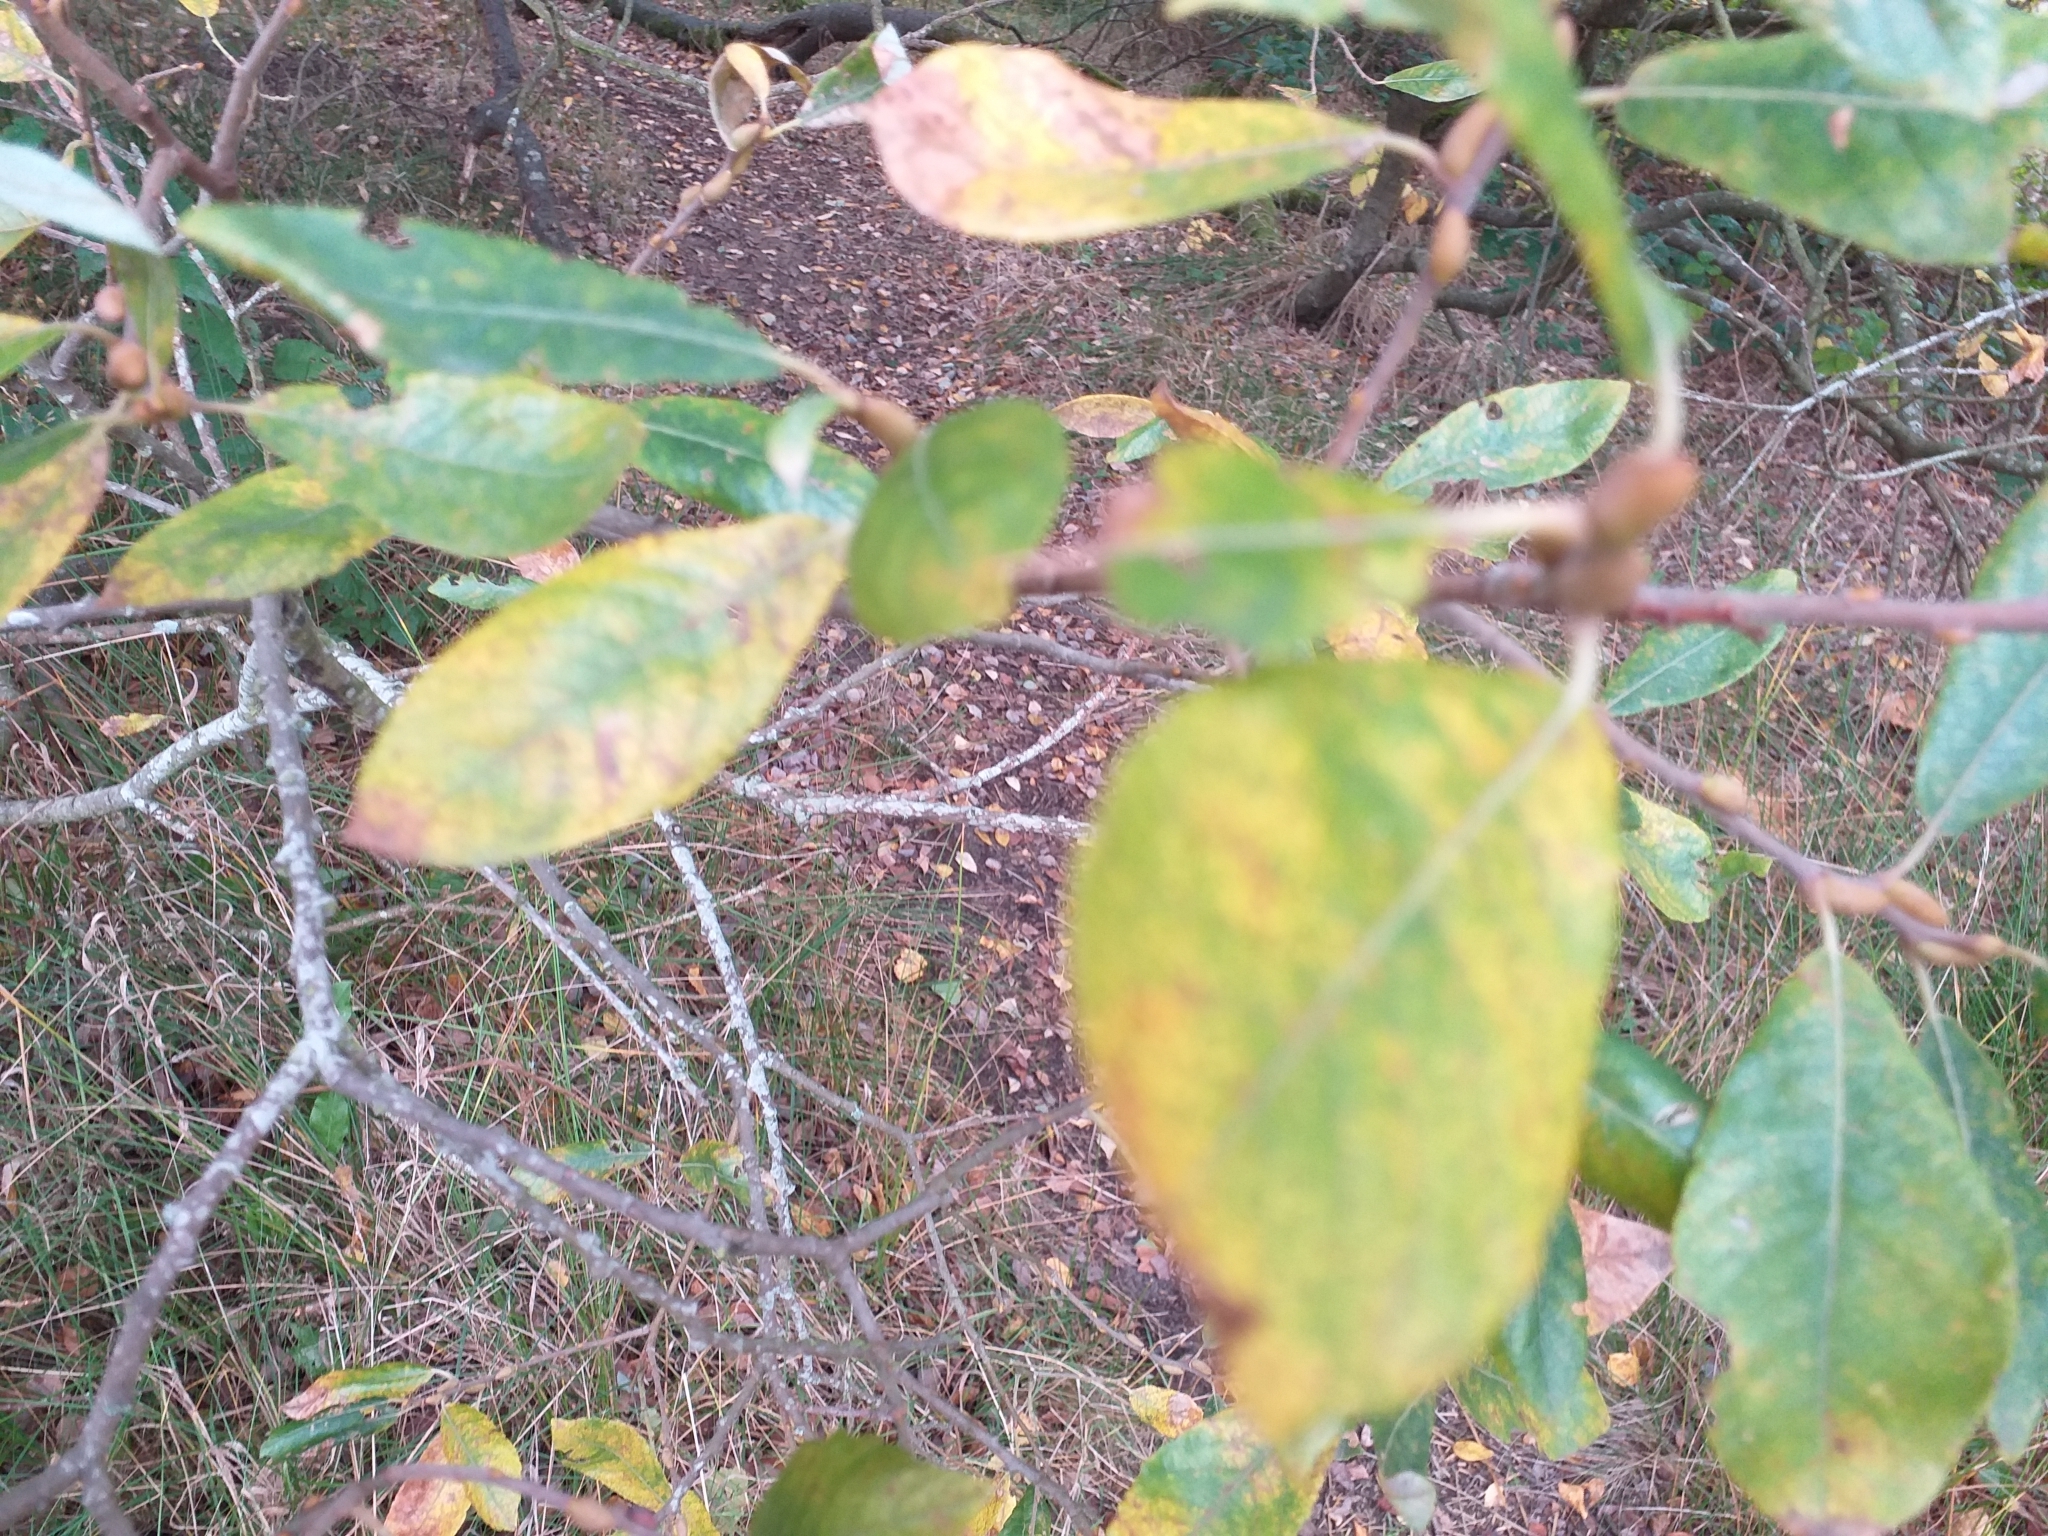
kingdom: Plantae
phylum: Tracheophyta
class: Magnoliopsida
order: Malpighiales
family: Salicaceae
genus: Salix
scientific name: Salix cinerea
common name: Common sallow
